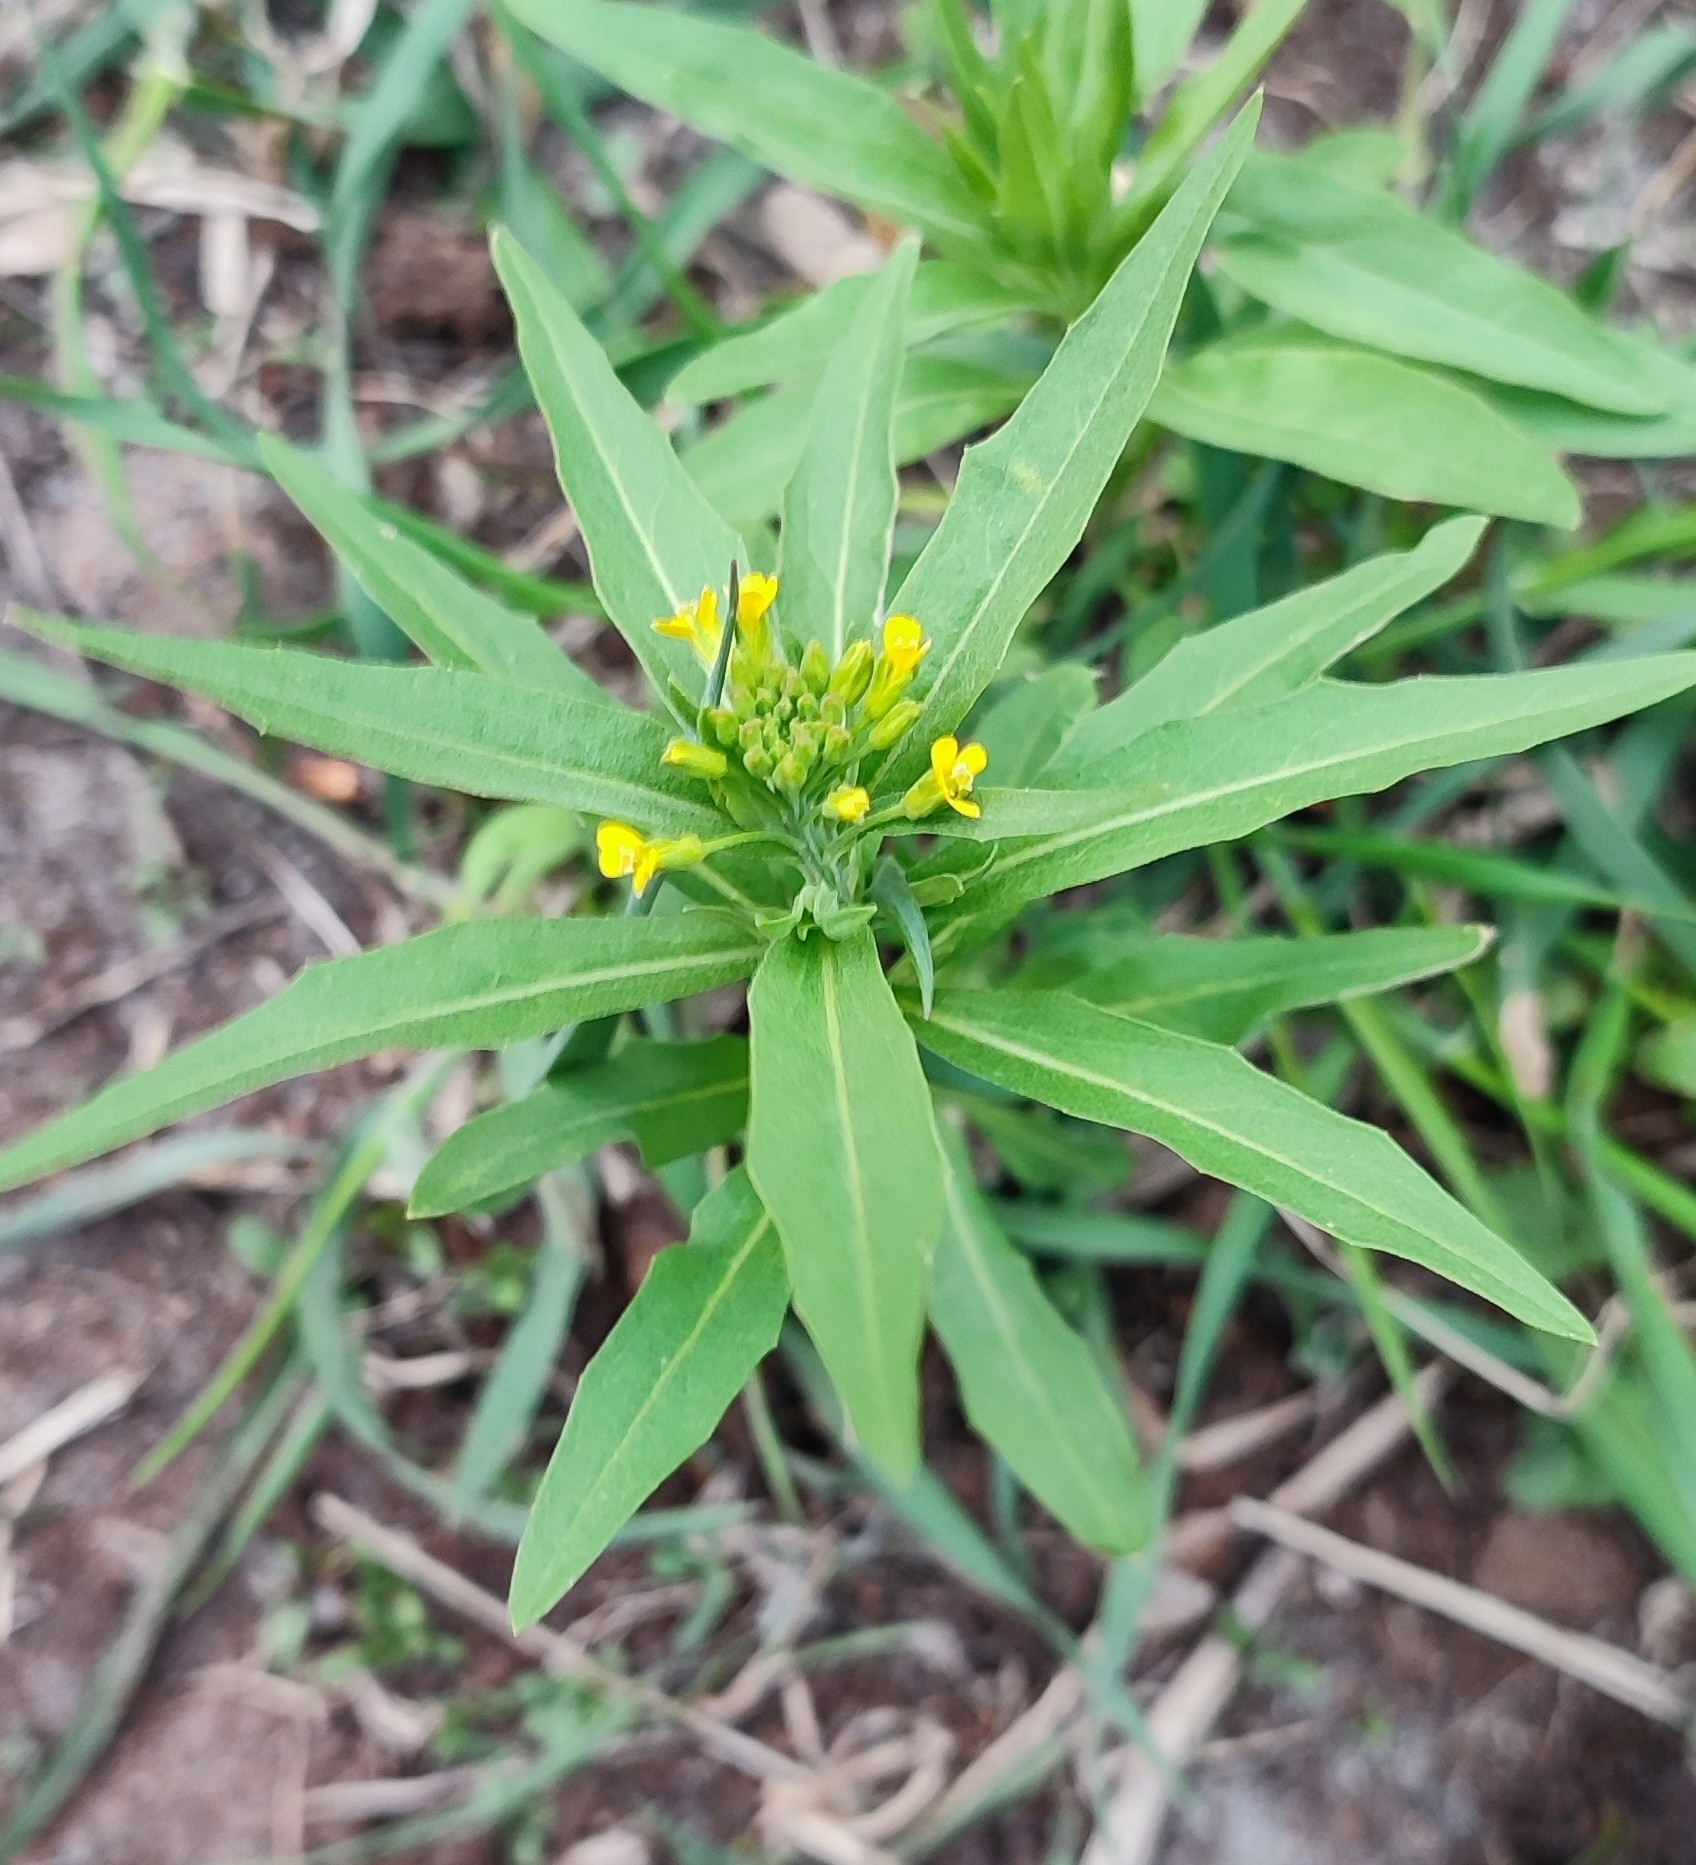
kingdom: Plantae
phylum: Tracheophyta
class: Magnoliopsida
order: Brassicales
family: Brassicaceae
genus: Erysimum
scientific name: Erysimum cheiranthoides
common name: Treacle mustard
